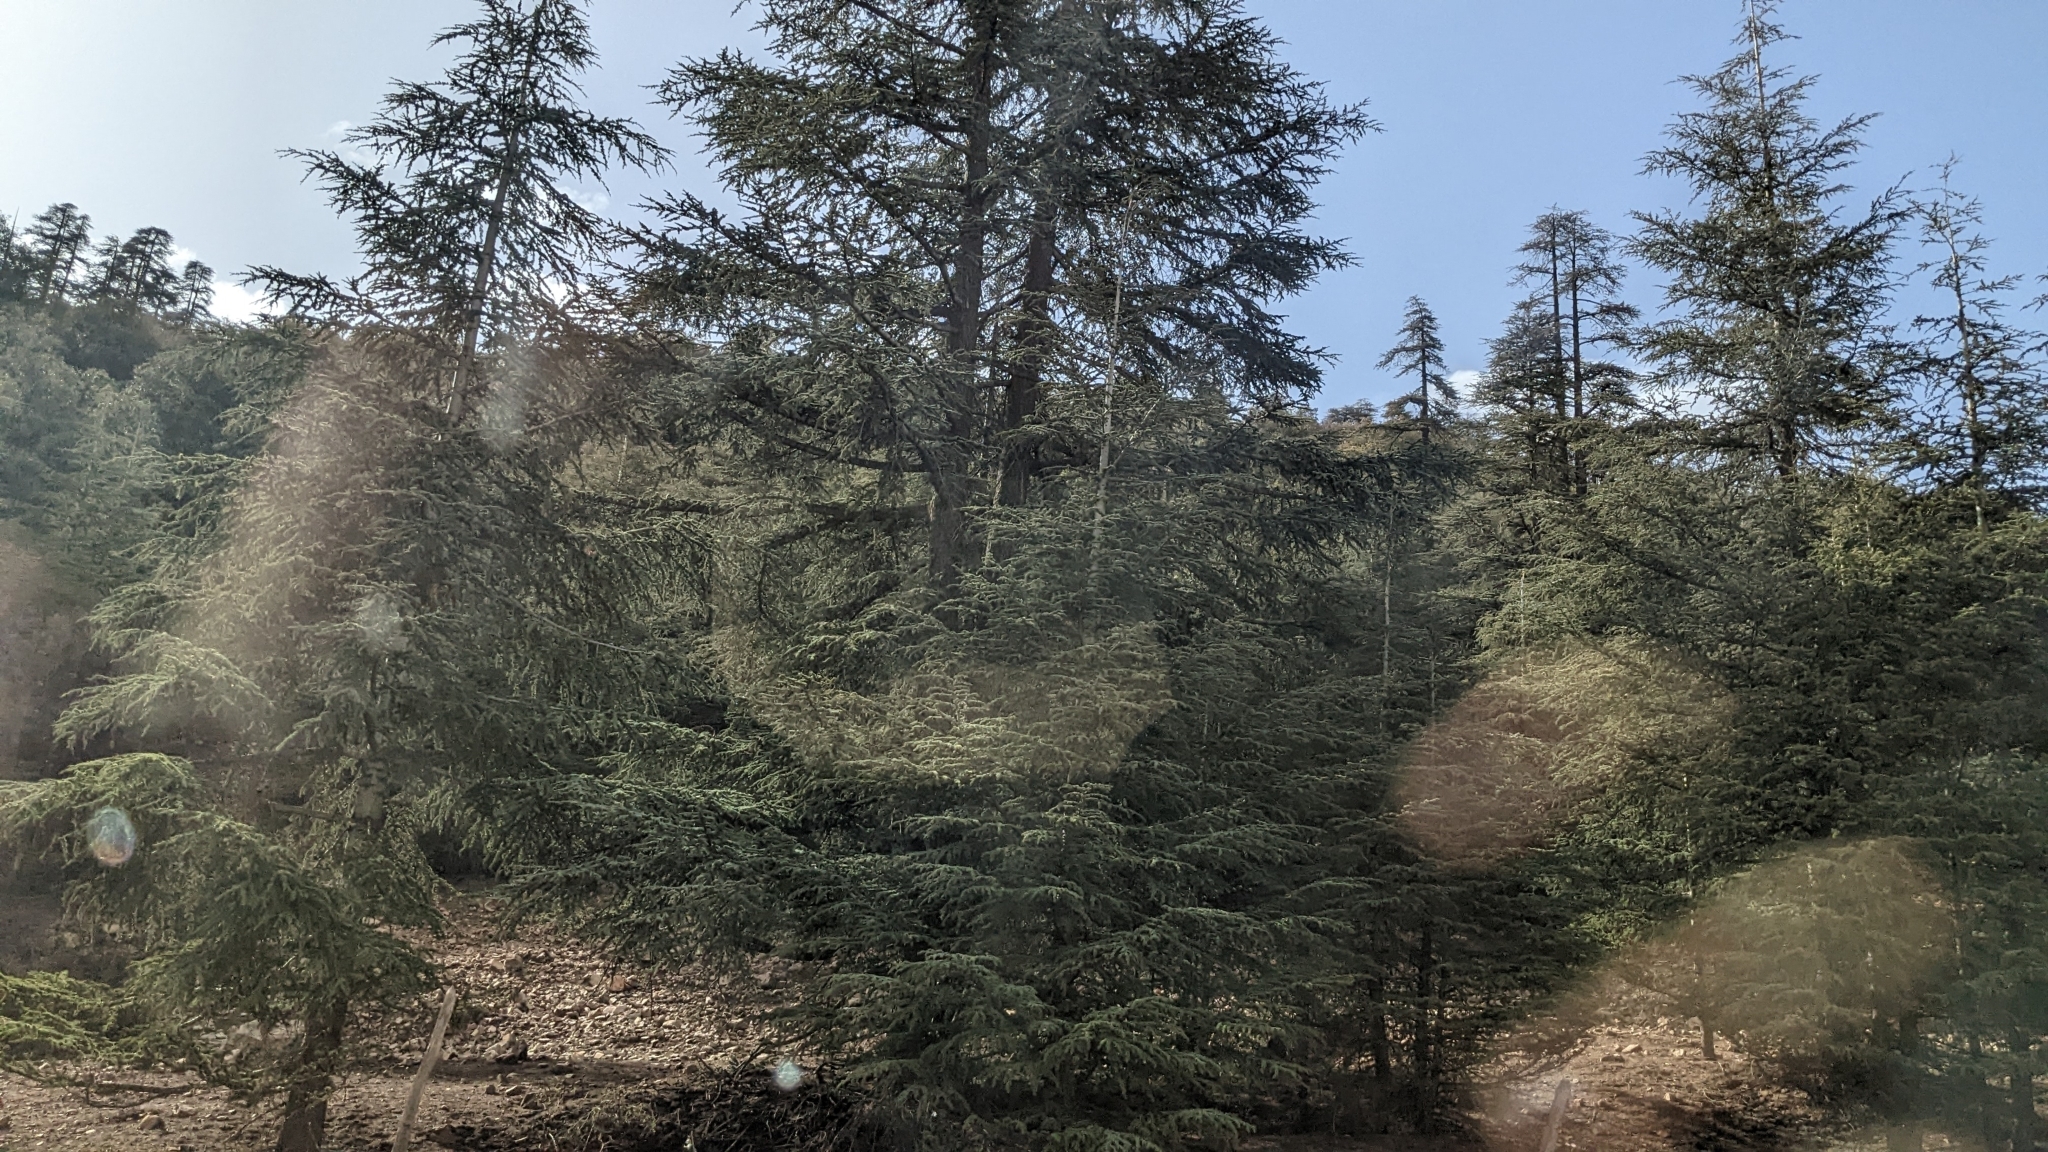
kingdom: Plantae
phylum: Tracheophyta
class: Pinopsida
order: Pinales
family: Pinaceae
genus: Cedrus
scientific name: Cedrus atlantica
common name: Atlas cedar
